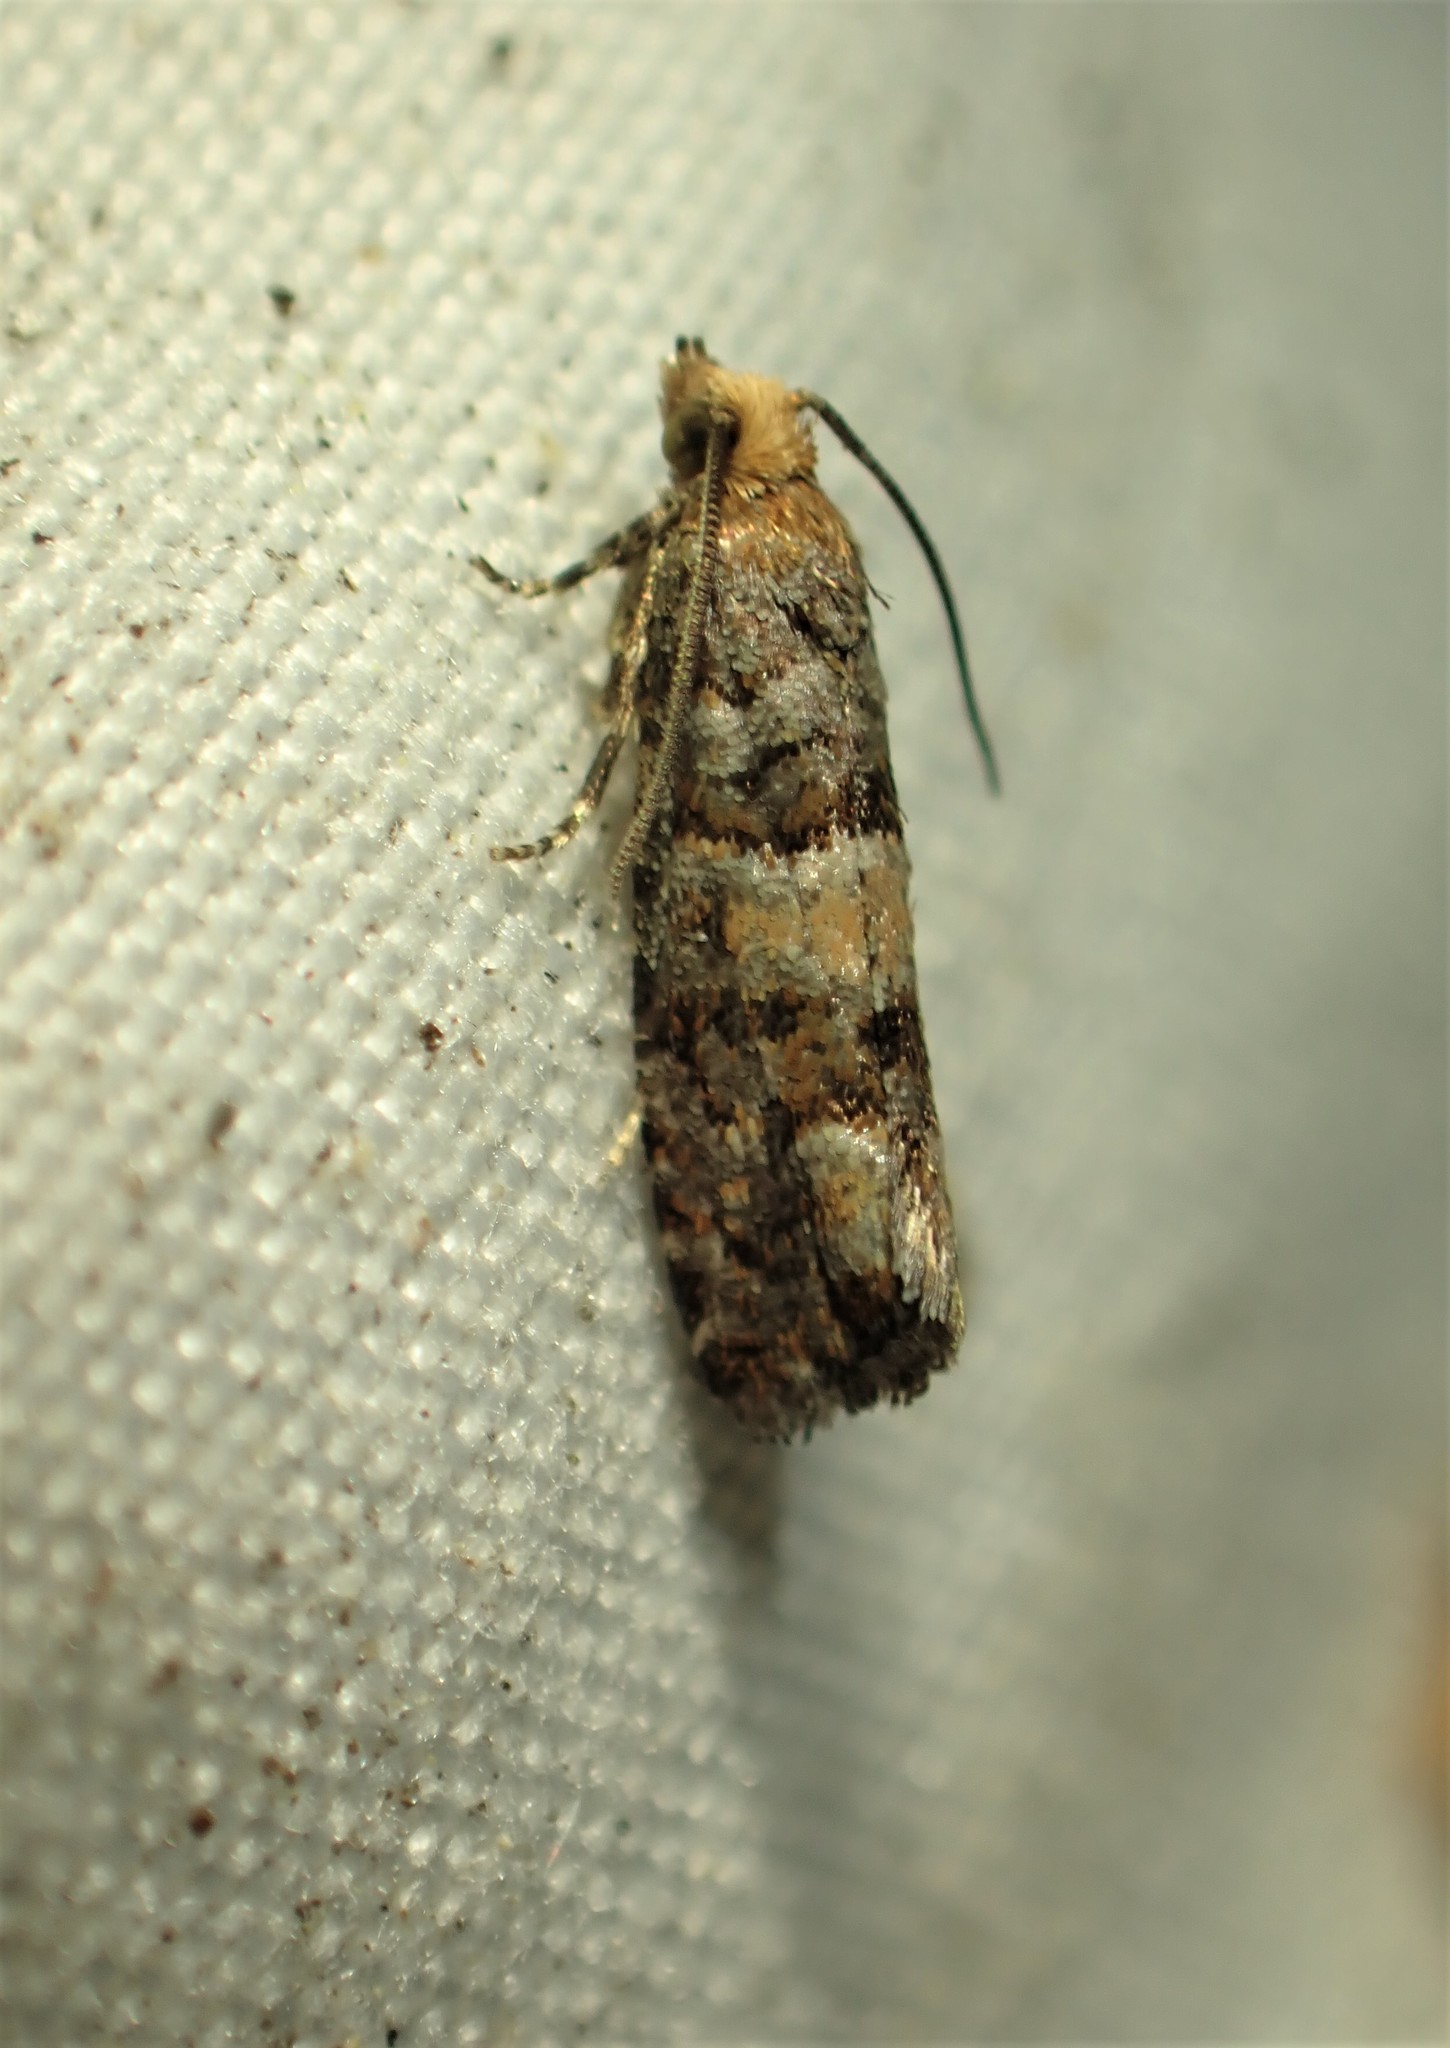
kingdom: Animalia
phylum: Arthropoda
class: Insecta
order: Lepidoptera
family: Tortricidae
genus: Eucopina
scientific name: Eucopina tocullionana
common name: White pinecone borer moth
